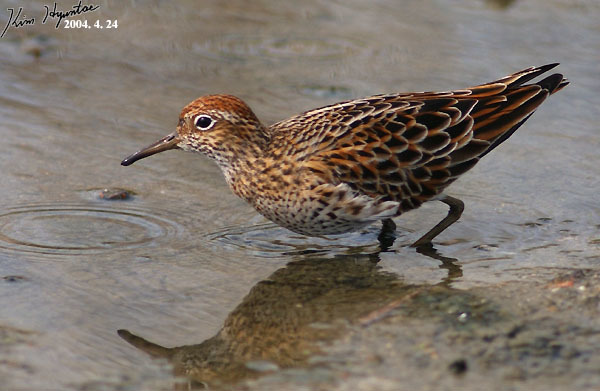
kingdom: Animalia
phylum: Chordata
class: Aves
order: Charadriiformes
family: Scolopacidae
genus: Calidris
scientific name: Calidris acuminata
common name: Sharp-tailed sandpiper
